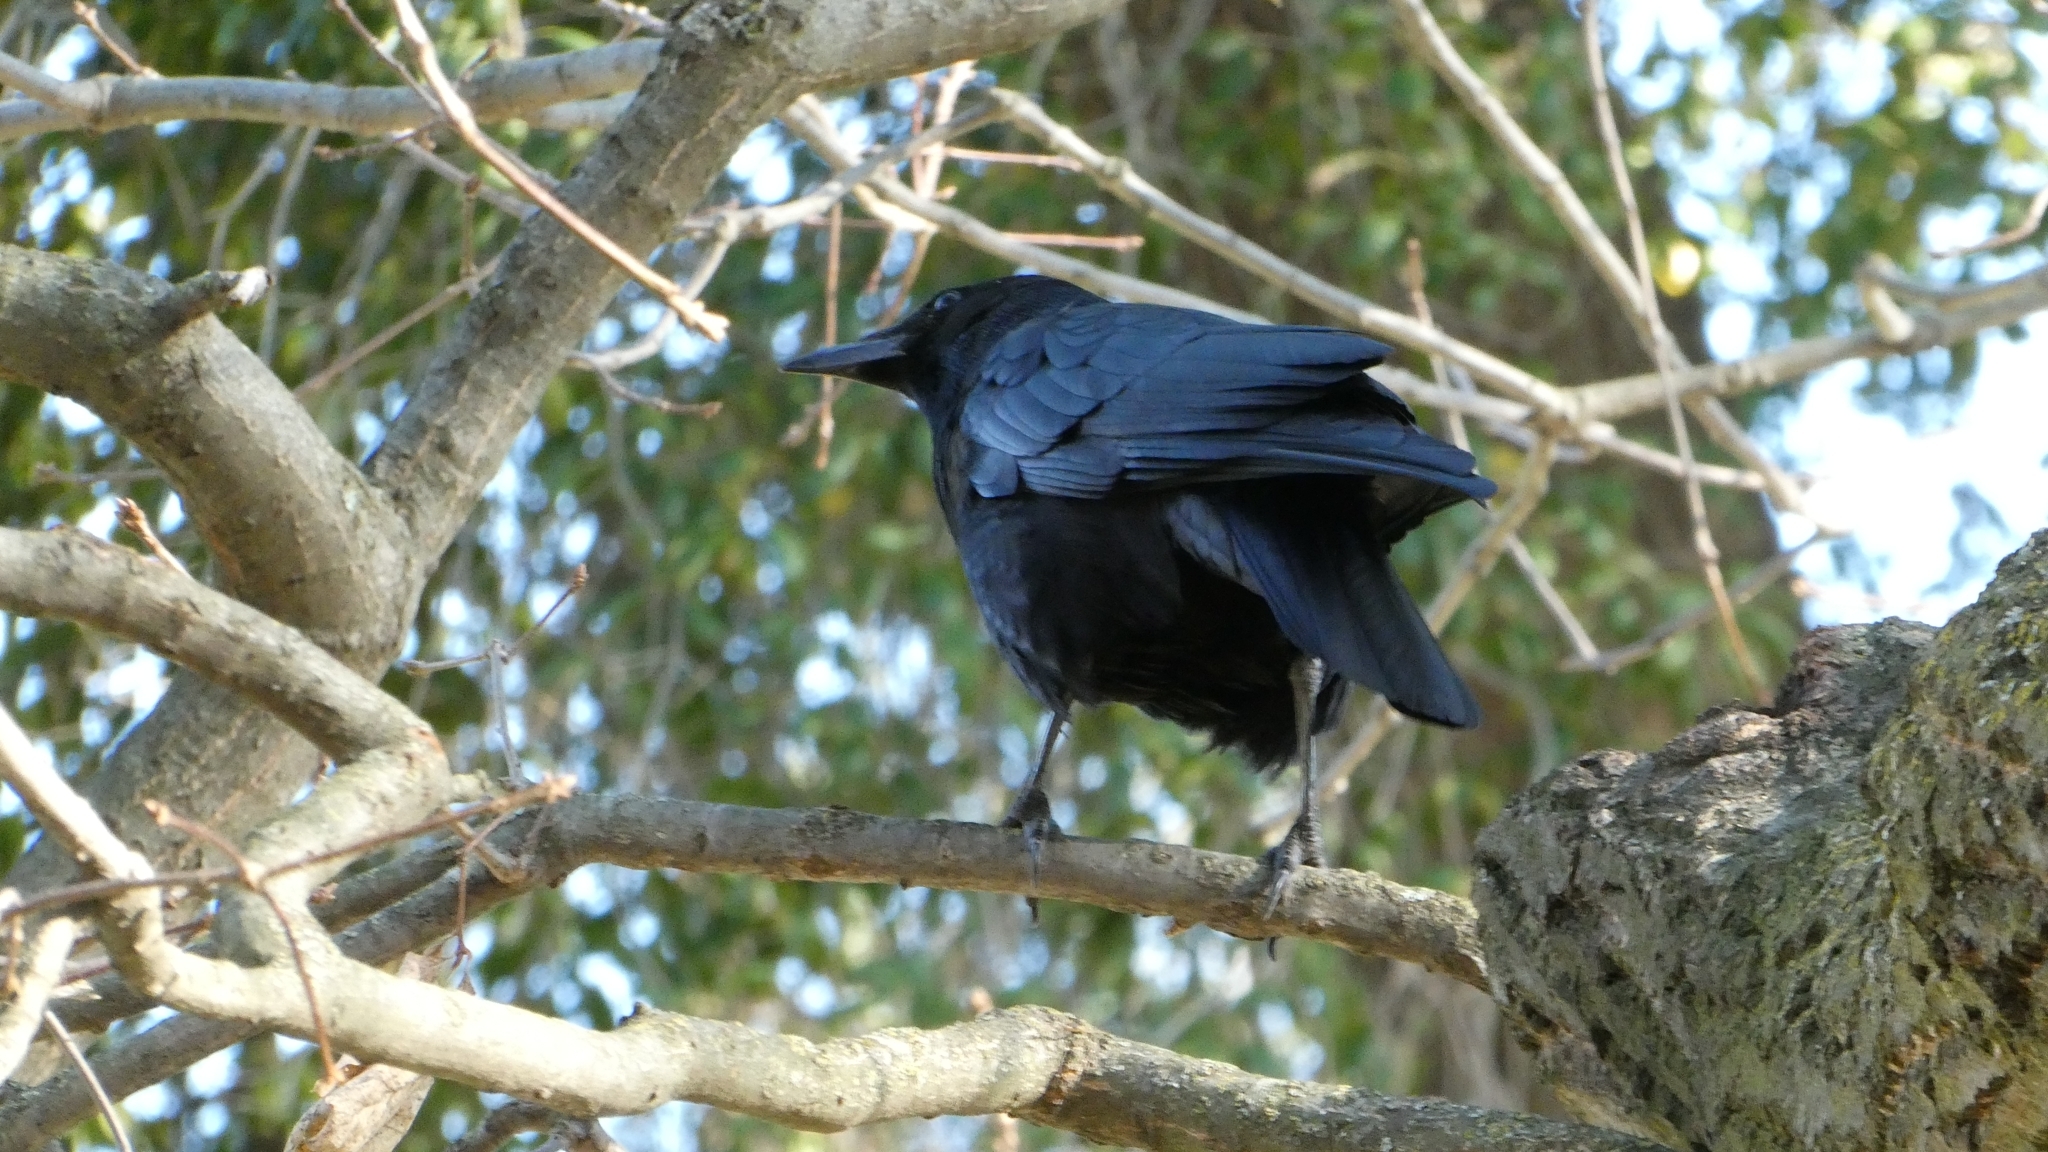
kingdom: Animalia
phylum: Chordata
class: Aves
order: Passeriformes
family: Corvidae
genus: Corvus
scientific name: Corvus brachyrhynchos
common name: American crow
